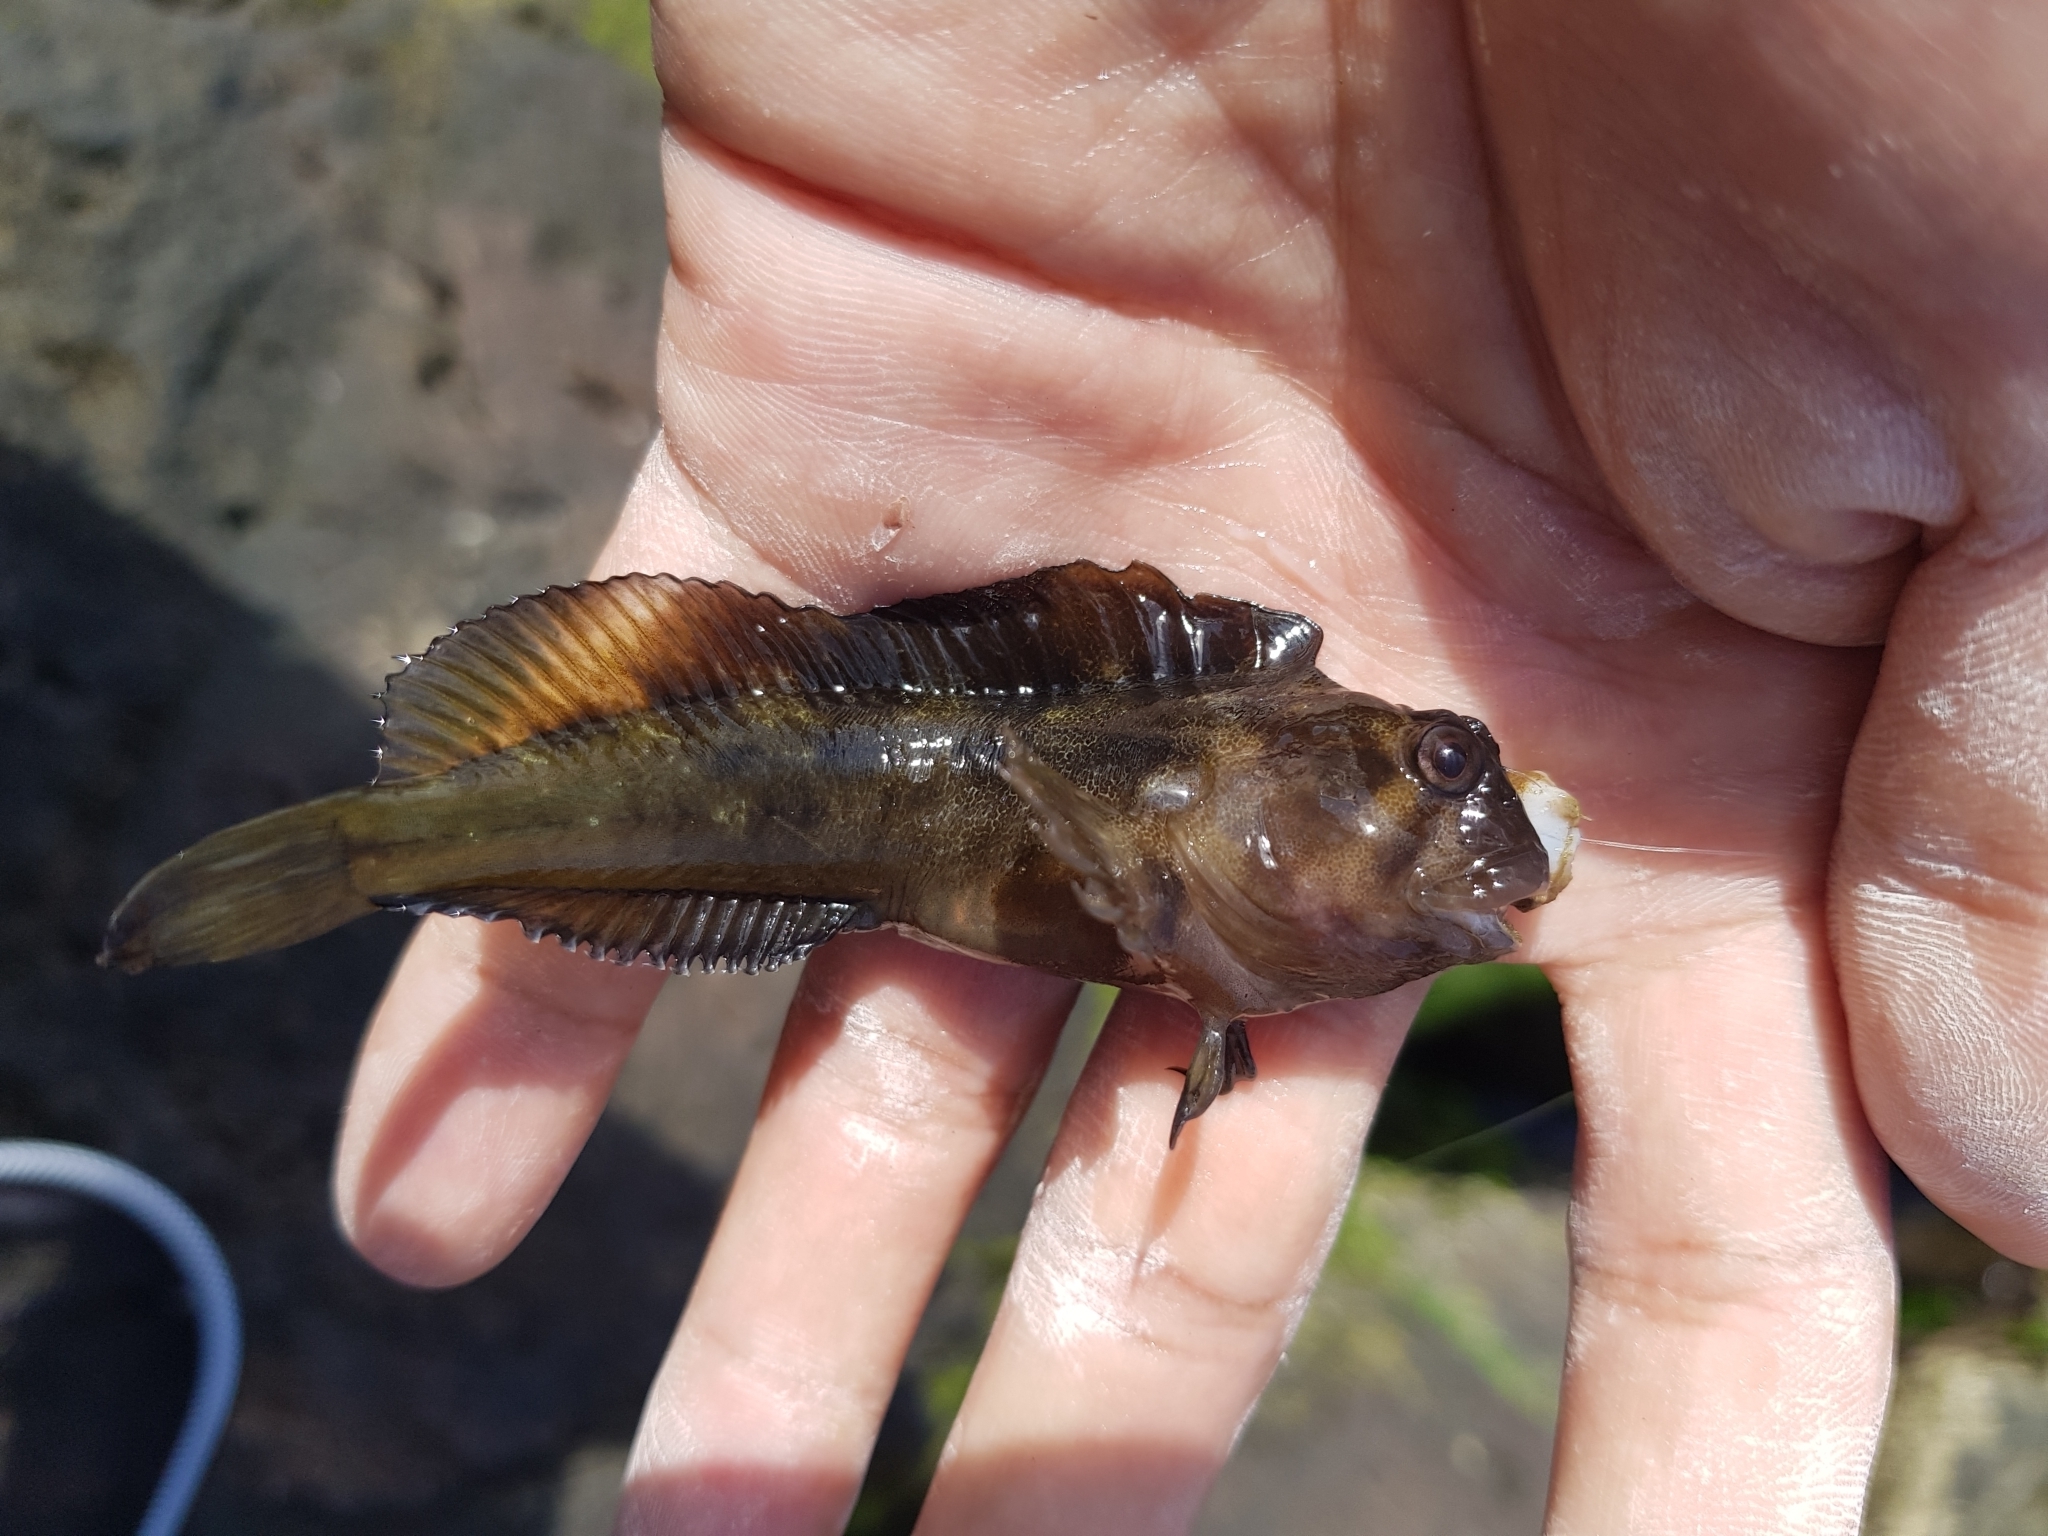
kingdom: Animalia
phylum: Chordata
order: Perciformes
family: Blenniidae
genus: Parablennius
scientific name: Parablennius tasmanianus
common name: Tasmanian blenny
